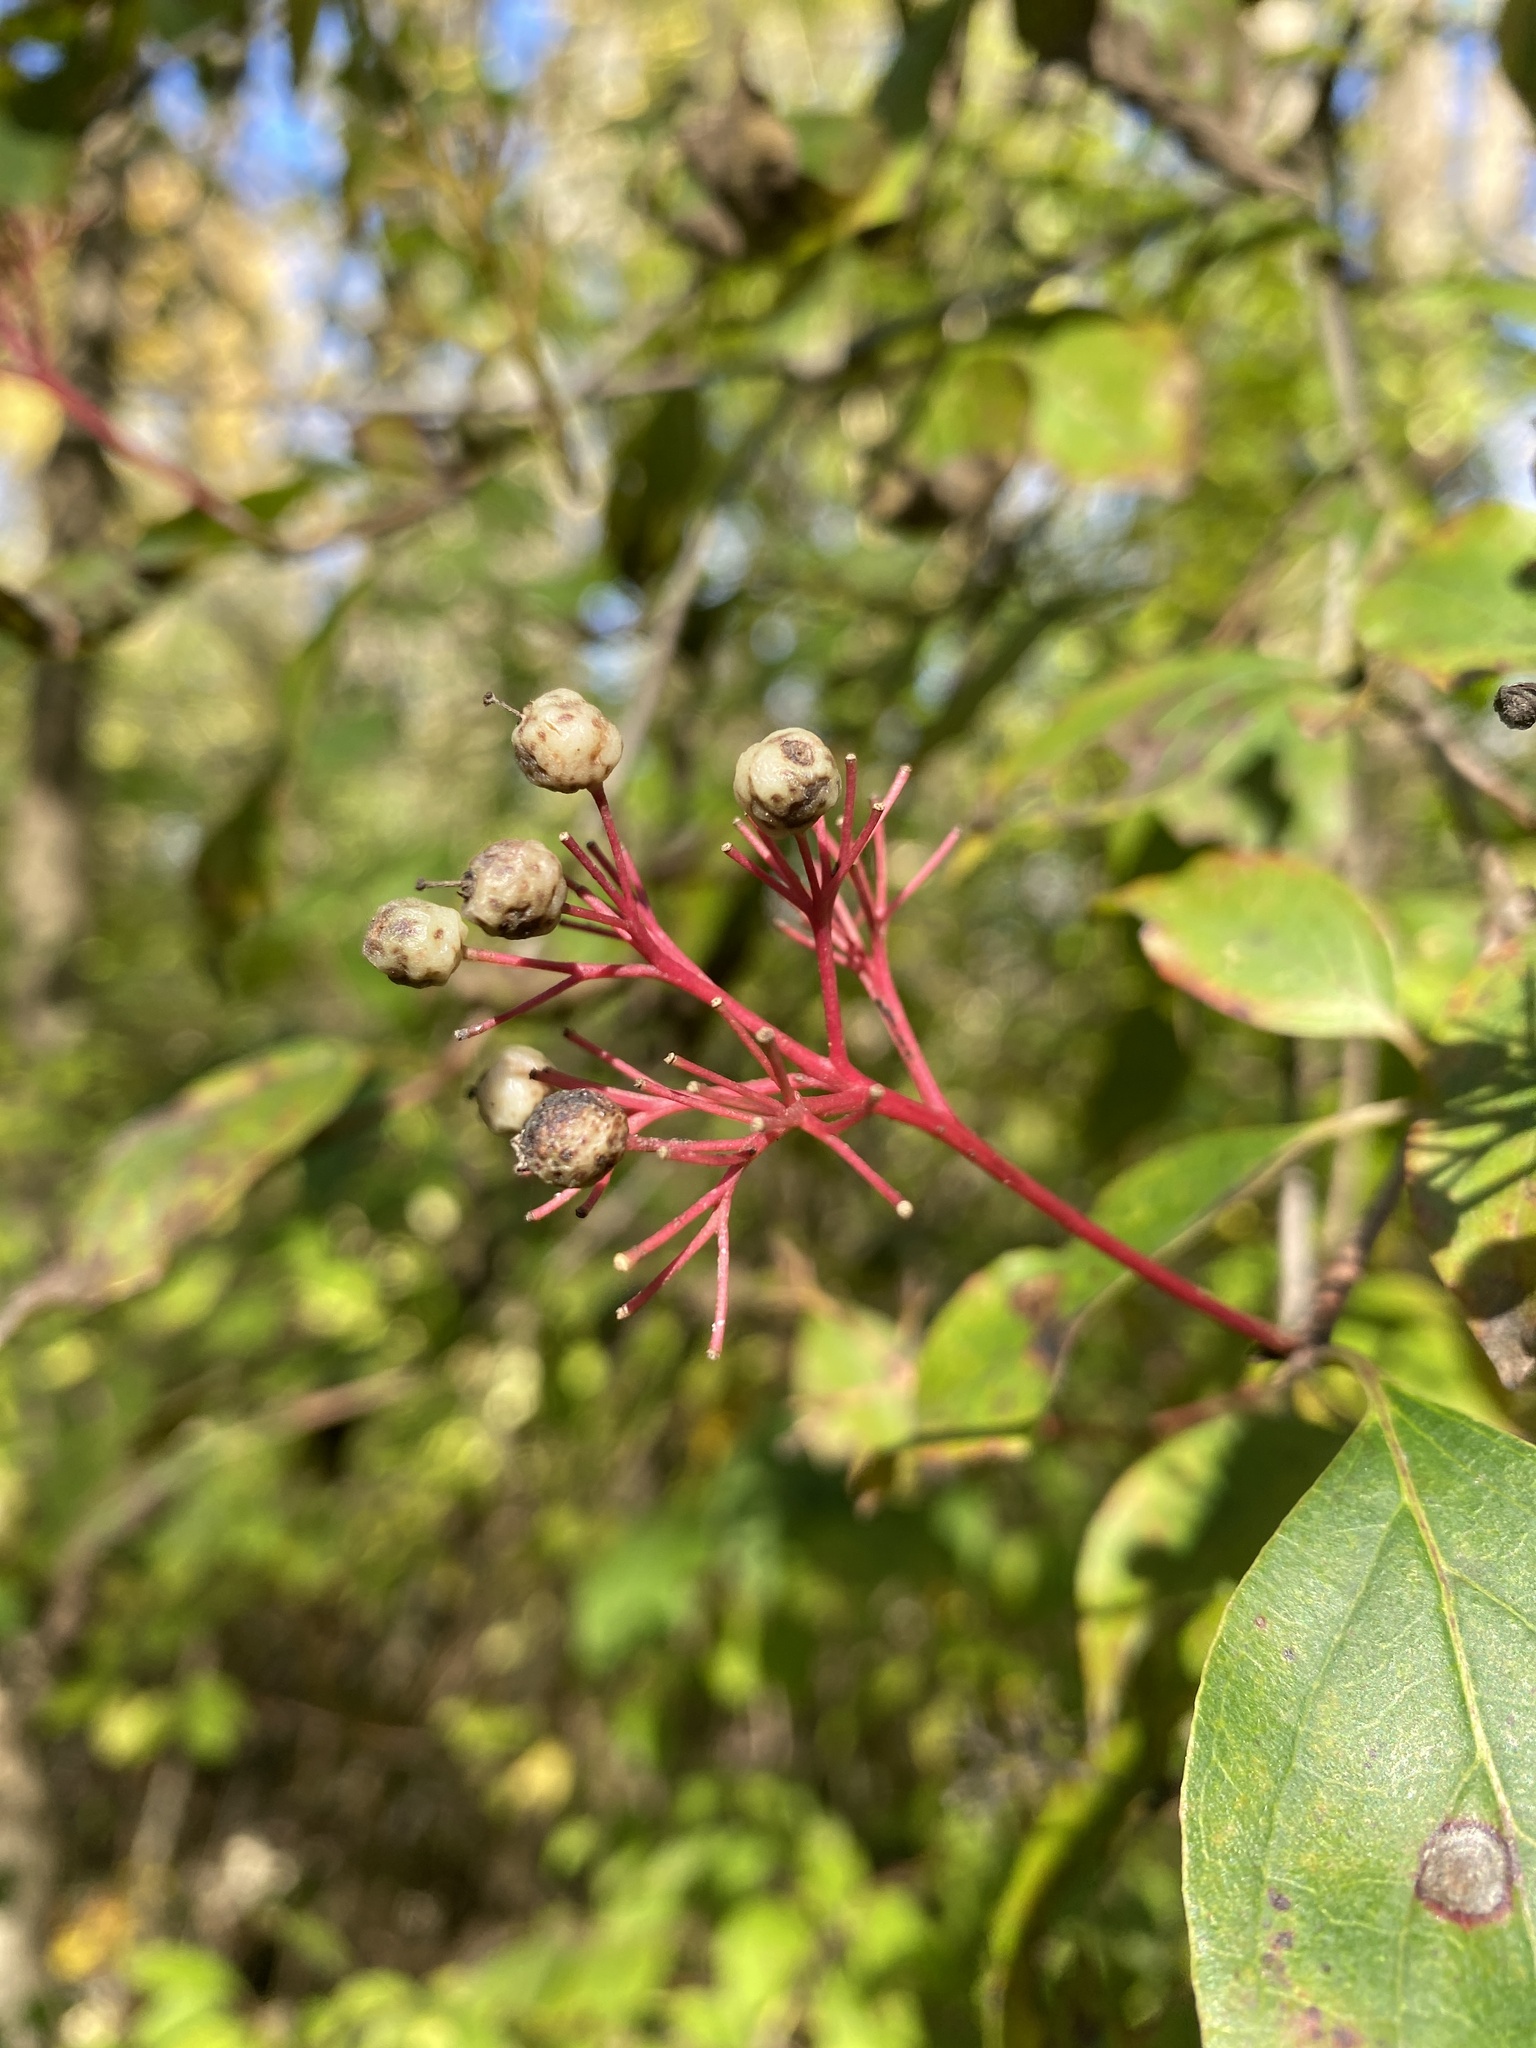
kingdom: Plantae
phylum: Tracheophyta
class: Magnoliopsida
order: Cornales
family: Cornaceae
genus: Cornus
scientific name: Cornus racemosa
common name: Panicled dogwood
